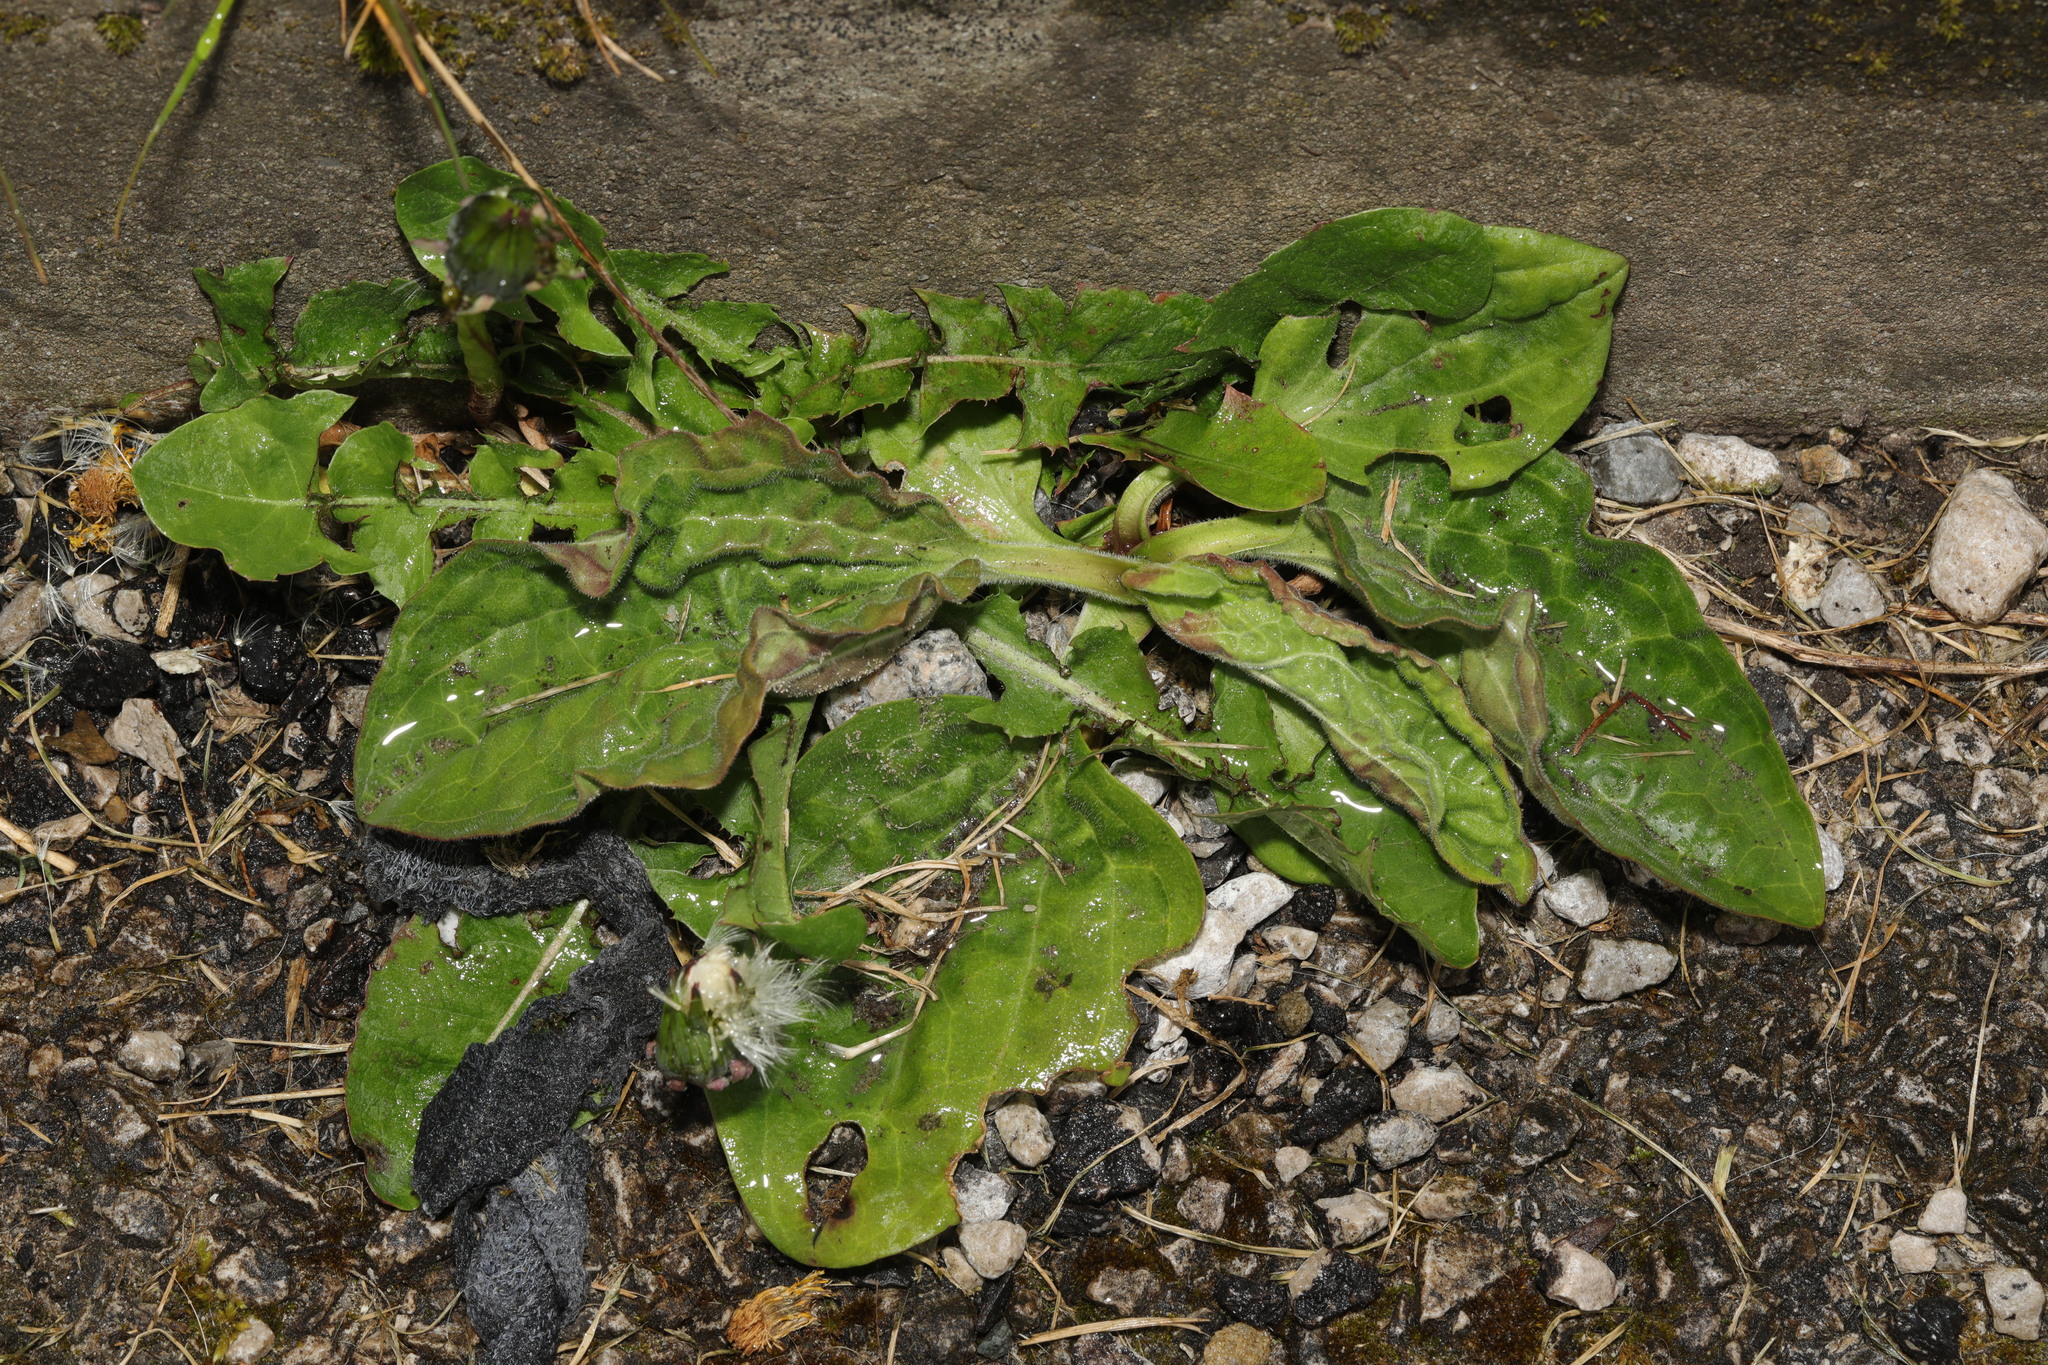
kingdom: Plantae
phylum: Tracheophyta
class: Magnoliopsida
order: Lamiales
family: Plantaginaceae
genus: Plantago
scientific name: Plantago major
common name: Common plantain
